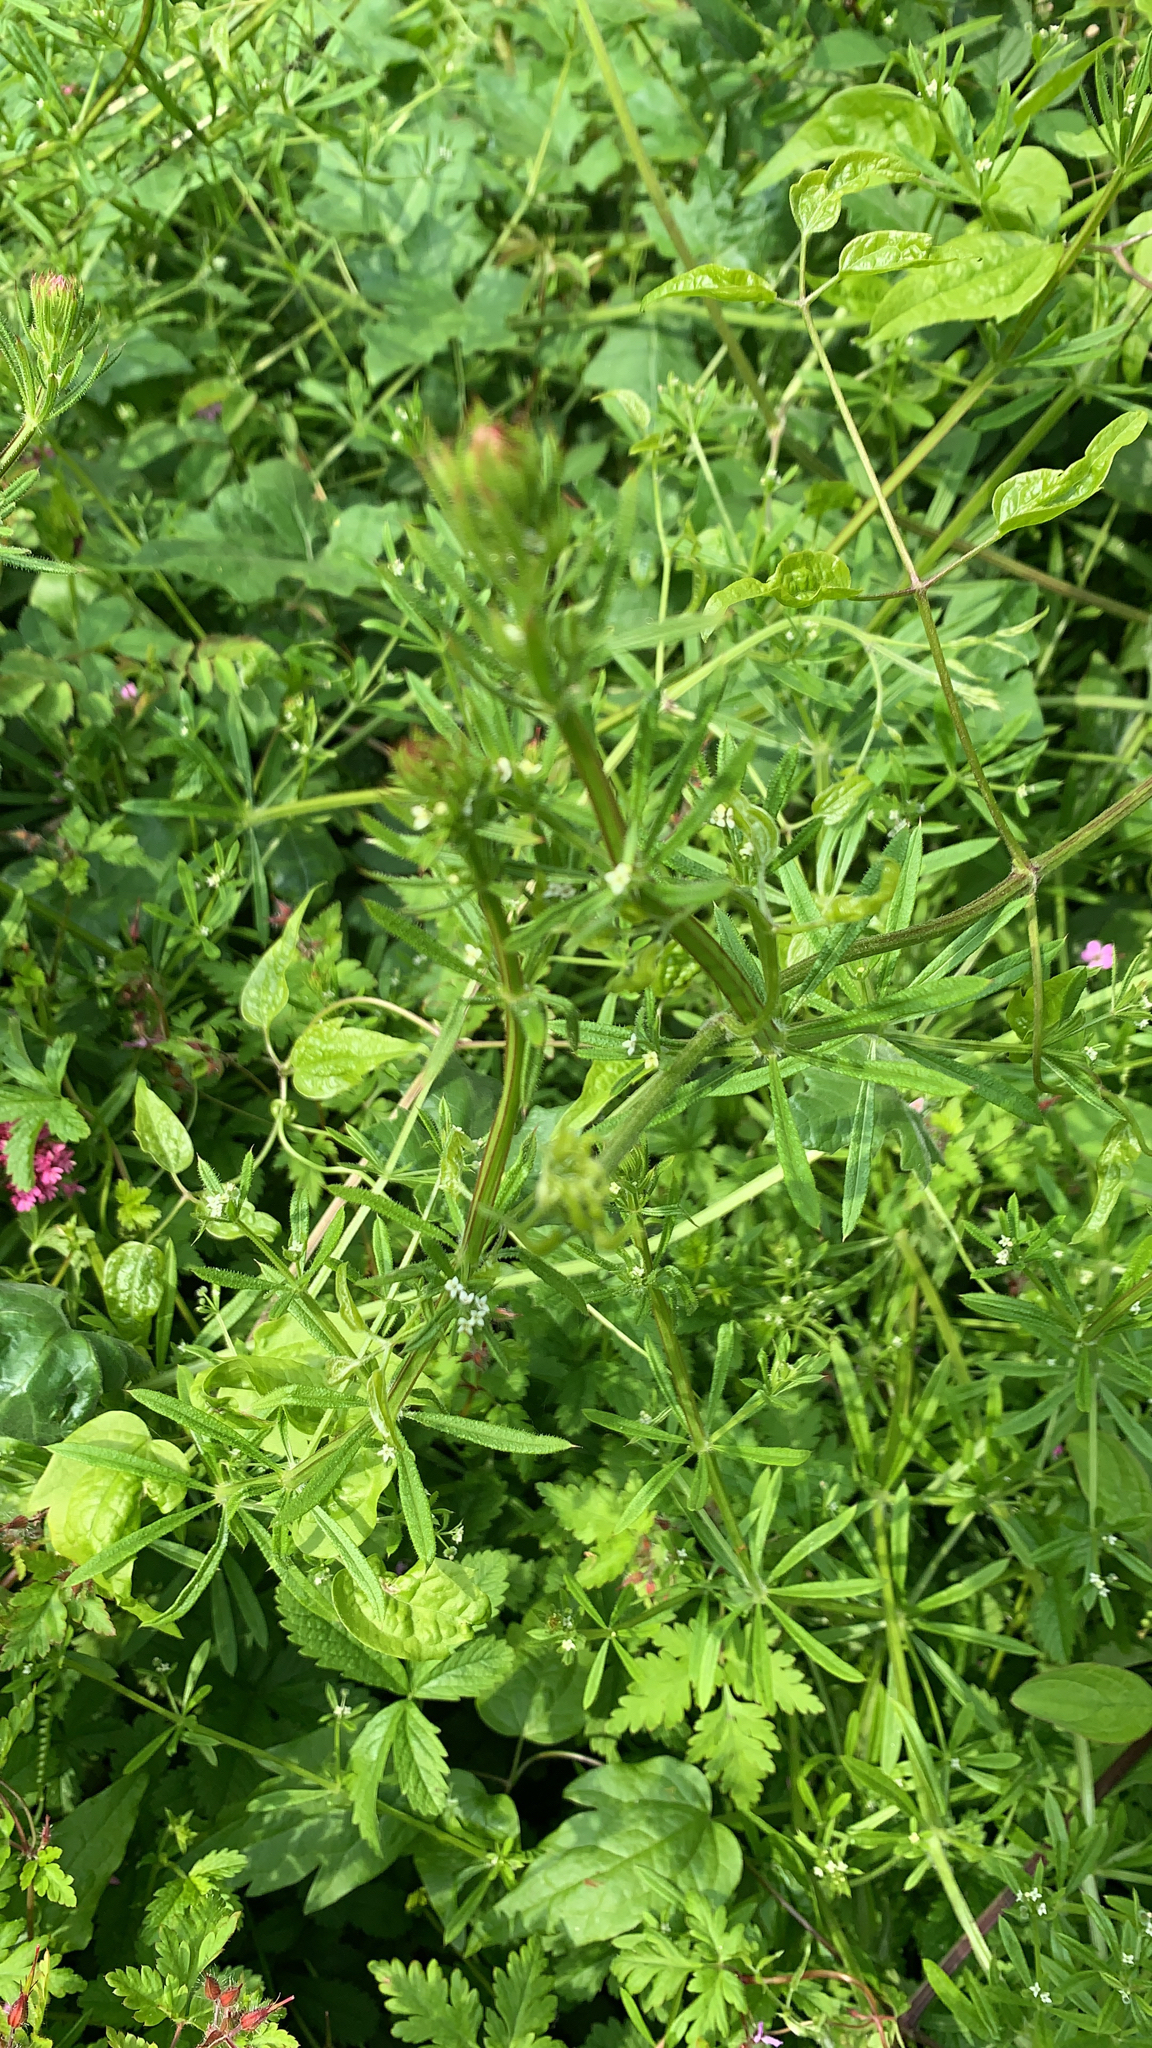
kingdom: Plantae
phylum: Tracheophyta
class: Magnoliopsida
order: Gentianales
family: Rubiaceae
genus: Galium
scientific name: Galium aparine
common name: Cleavers
